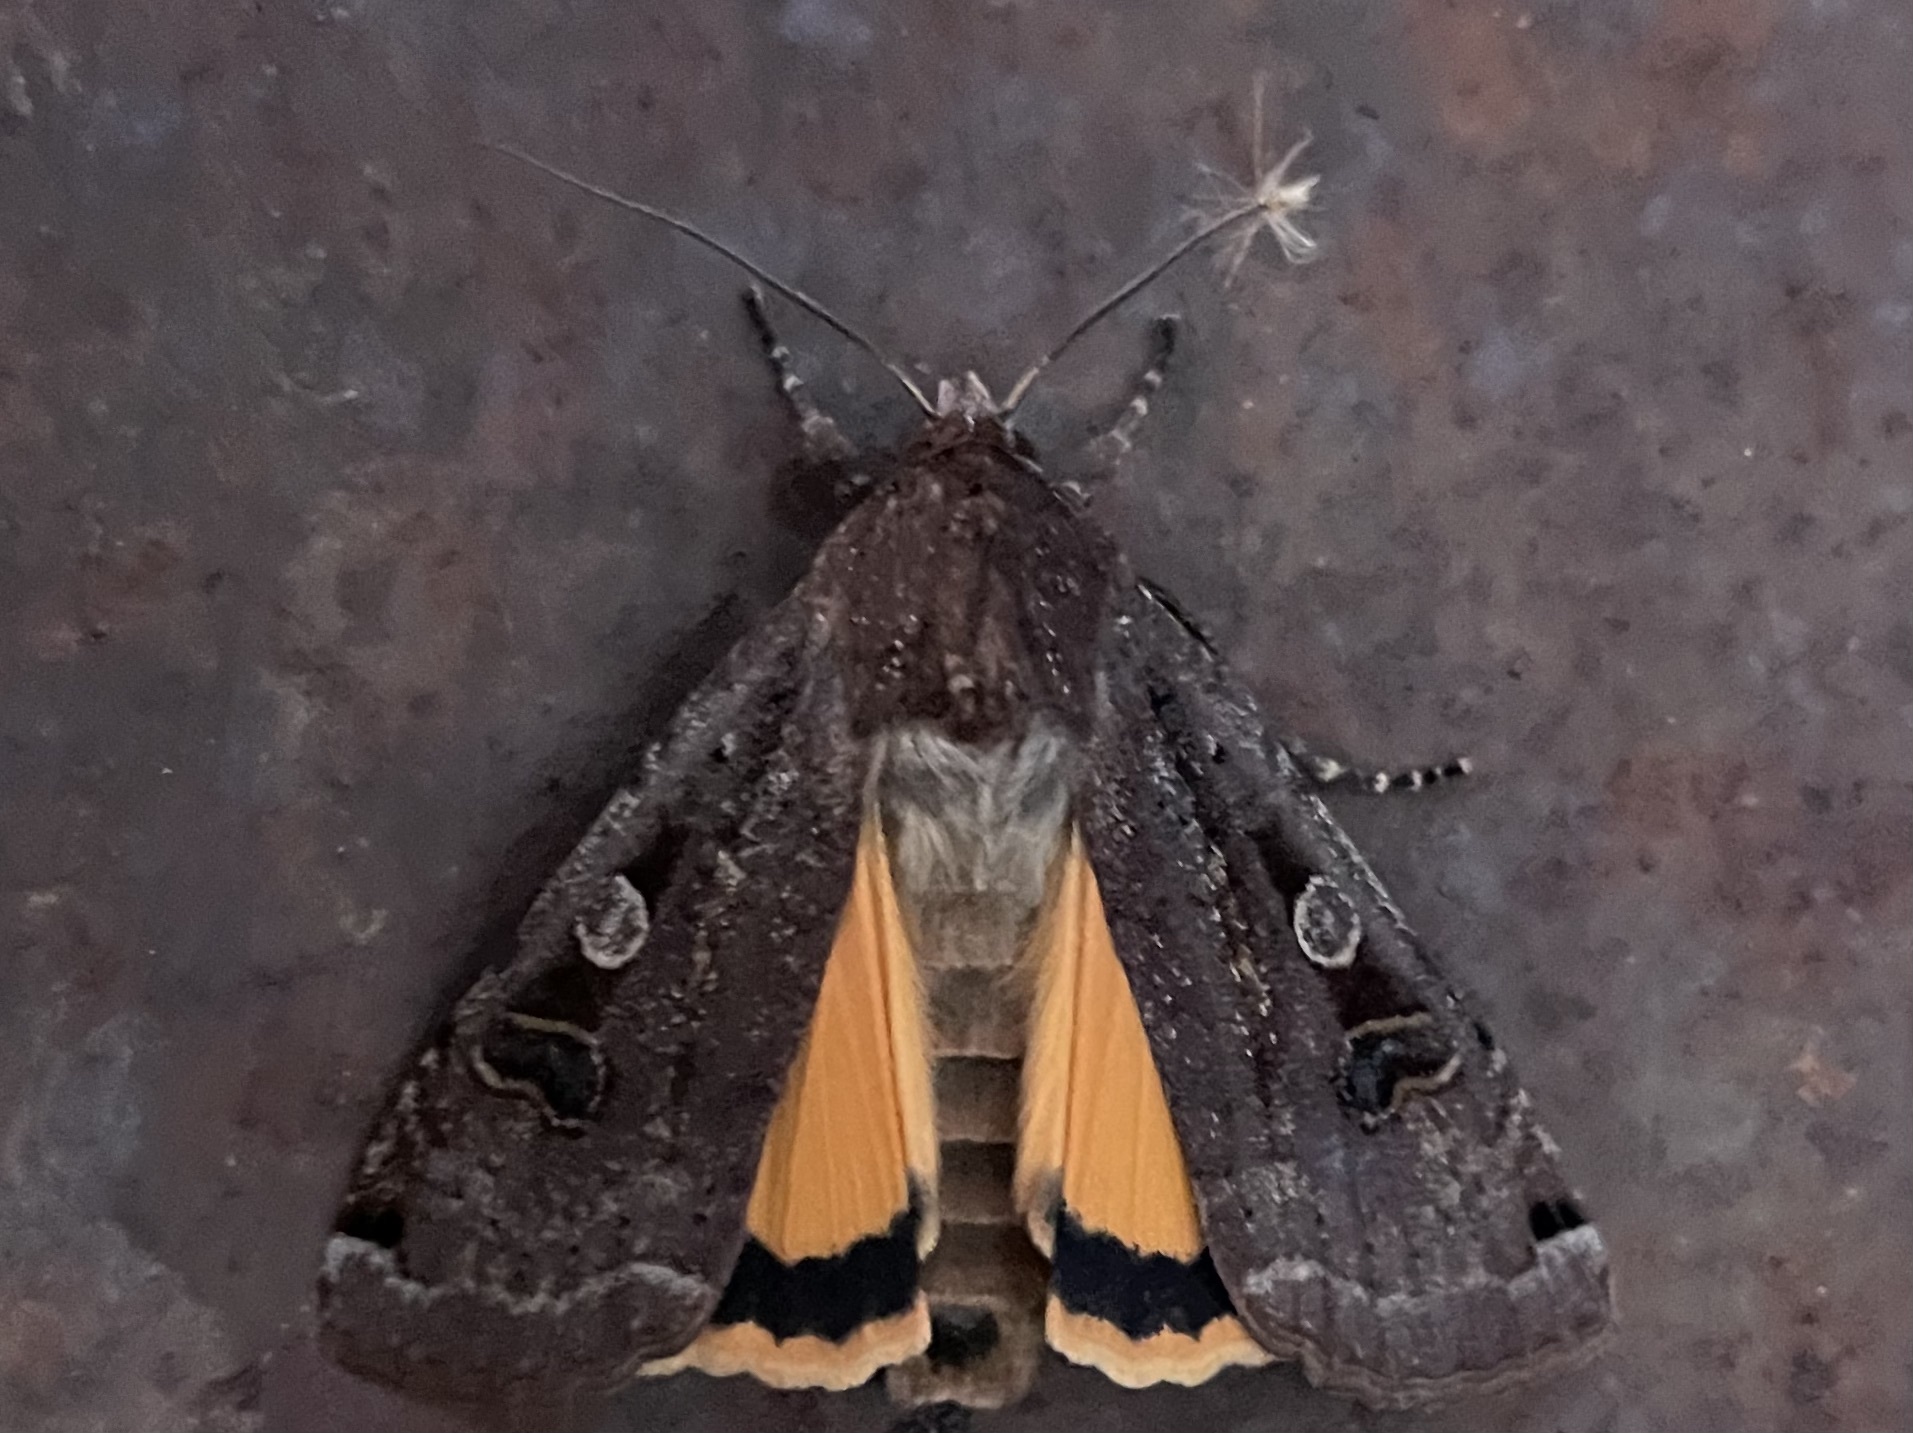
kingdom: Animalia
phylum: Arthropoda
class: Insecta
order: Lepidoptera
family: Noctuidae
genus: Noctua
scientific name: Noctua pronuba
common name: Large yellow underwing
